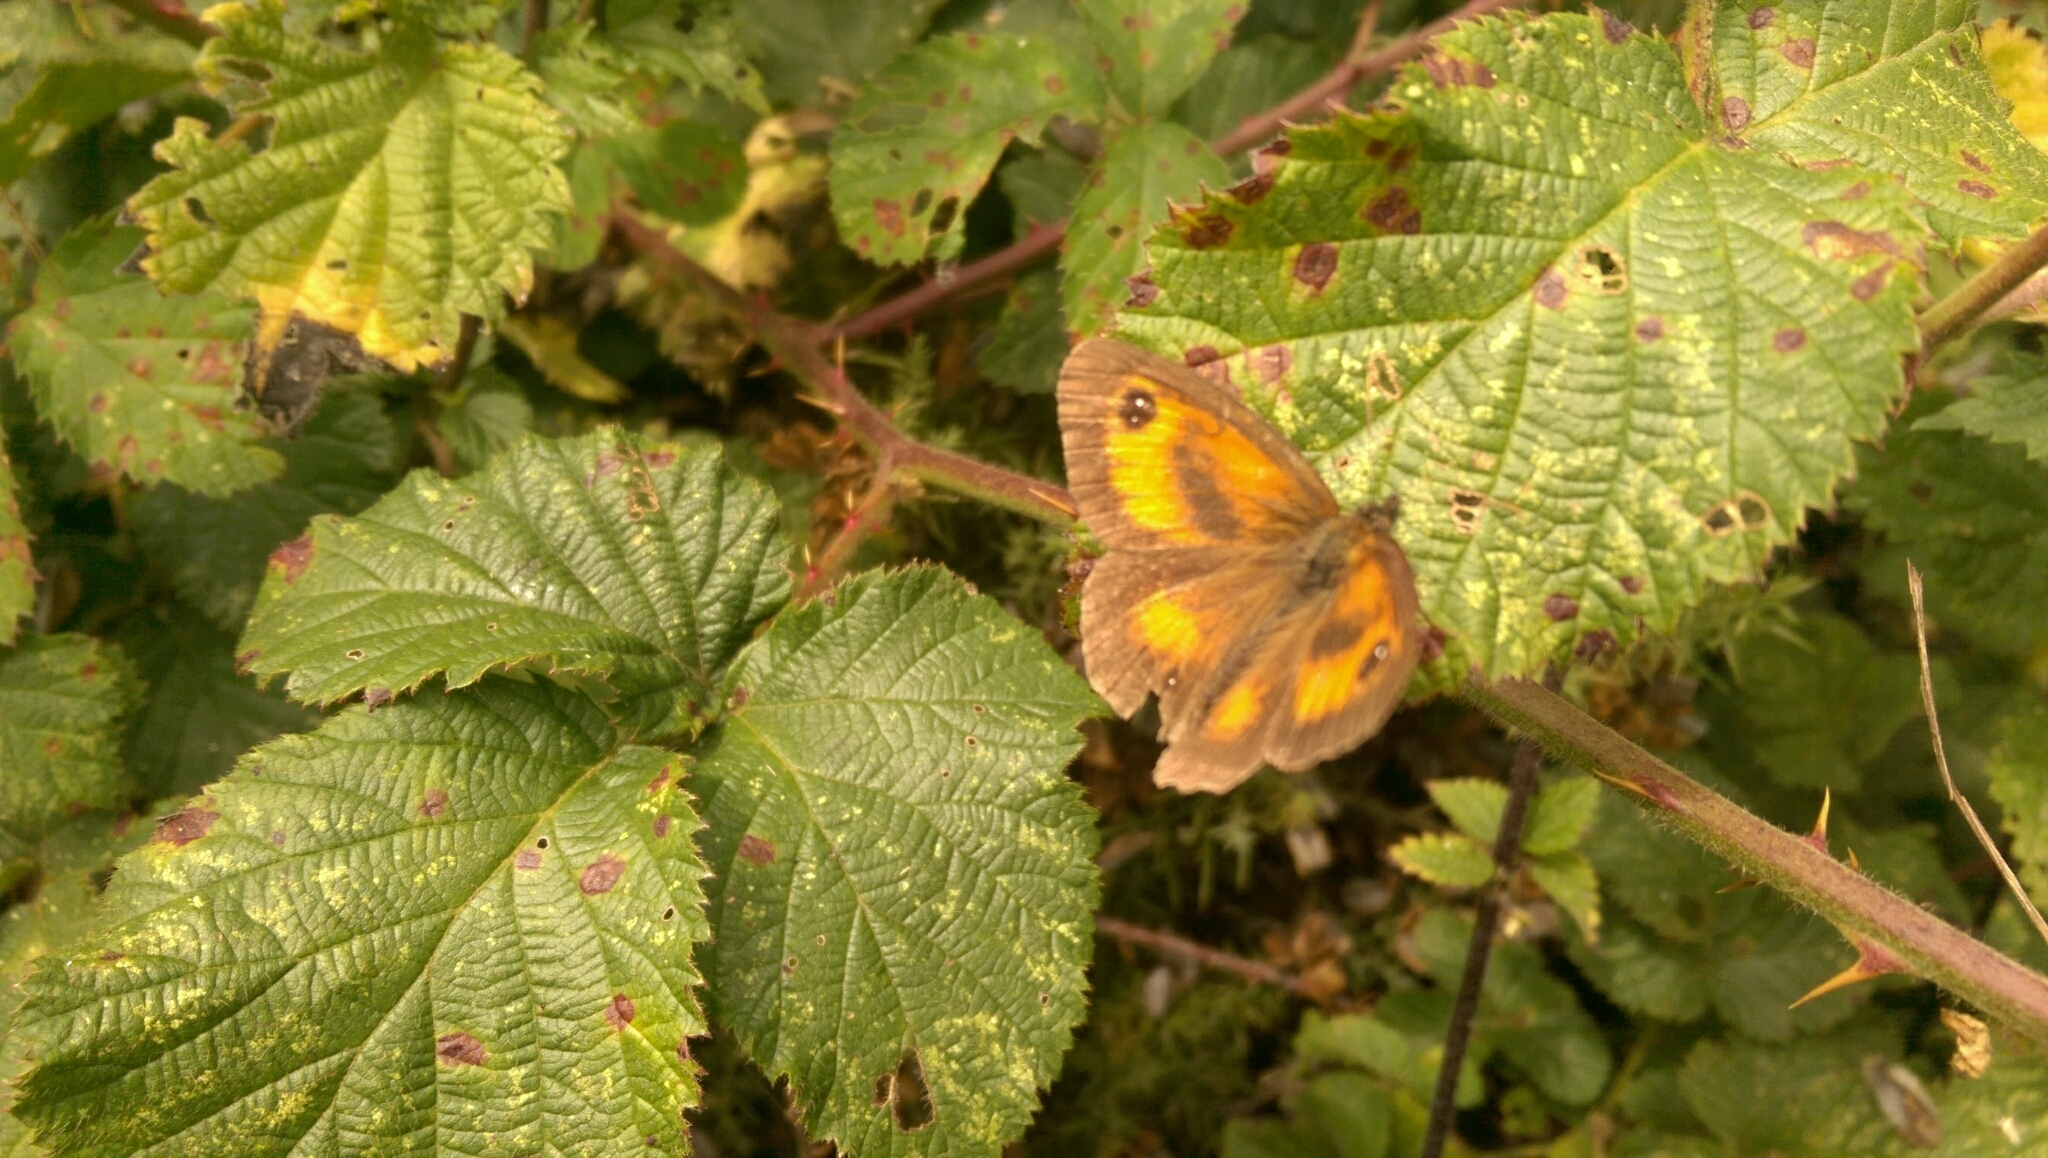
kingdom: Animalia
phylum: Arthropoda
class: Insecta
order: Lepidoptera
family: Nymphalidae
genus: Pyronia
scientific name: Pyronia tithonus
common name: Gatekeeper
